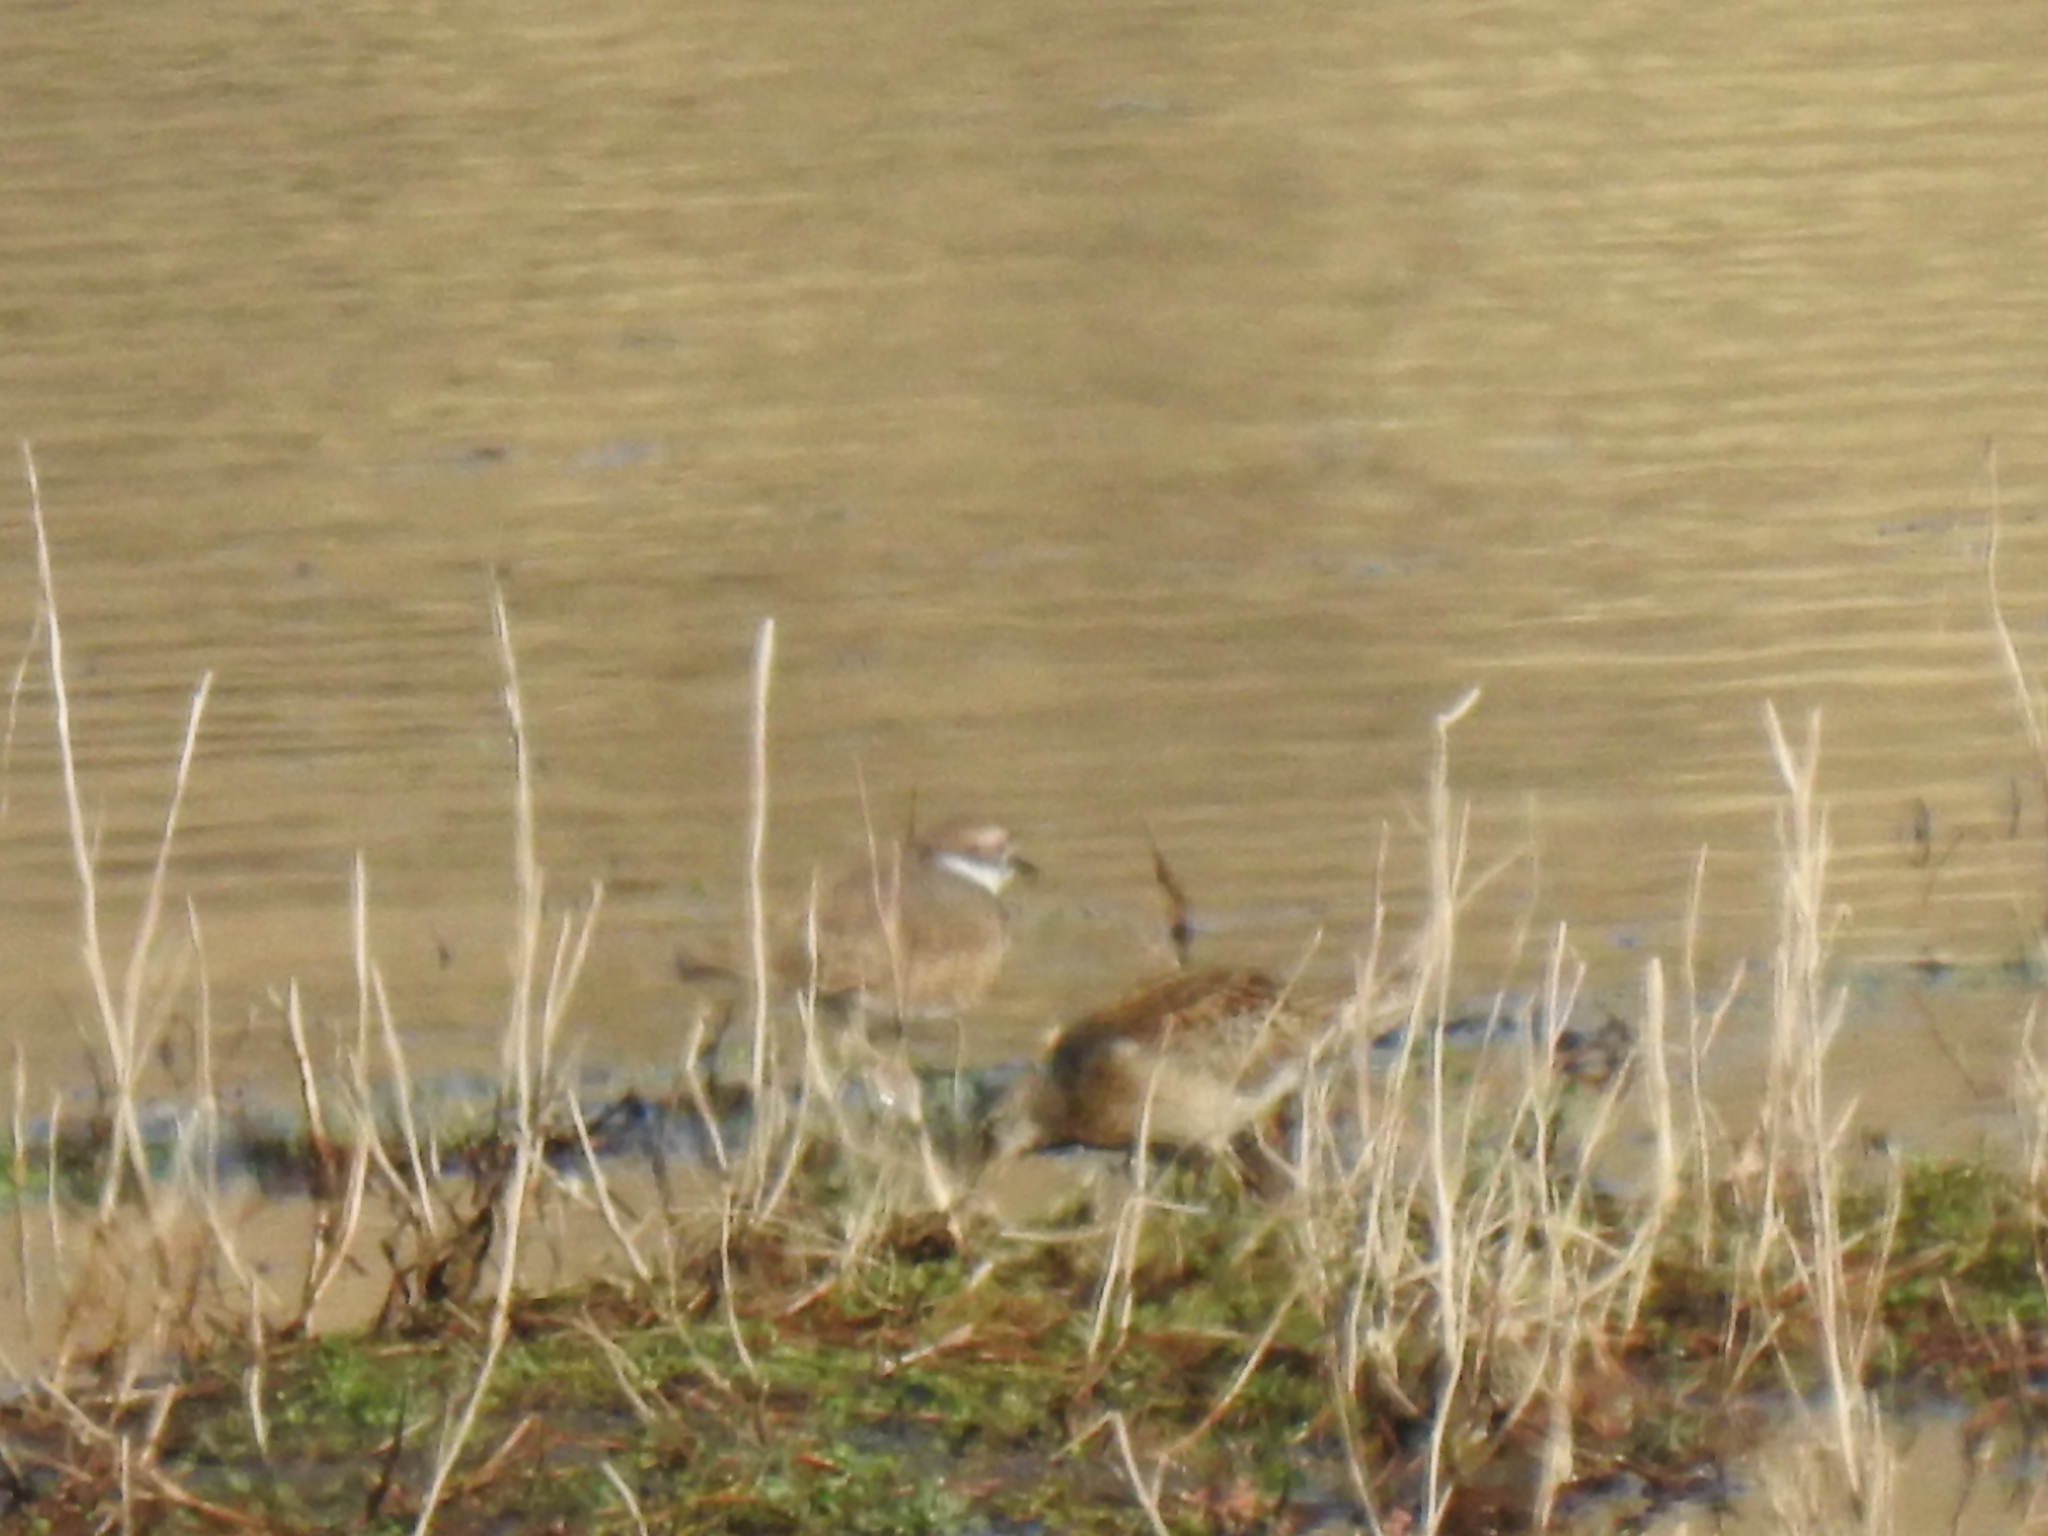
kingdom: Animalia
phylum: Chordata
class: Aves
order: Charadriiformes
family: Charadriidae
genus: Charadrius
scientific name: Charadrius vociferus
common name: Killdeer
